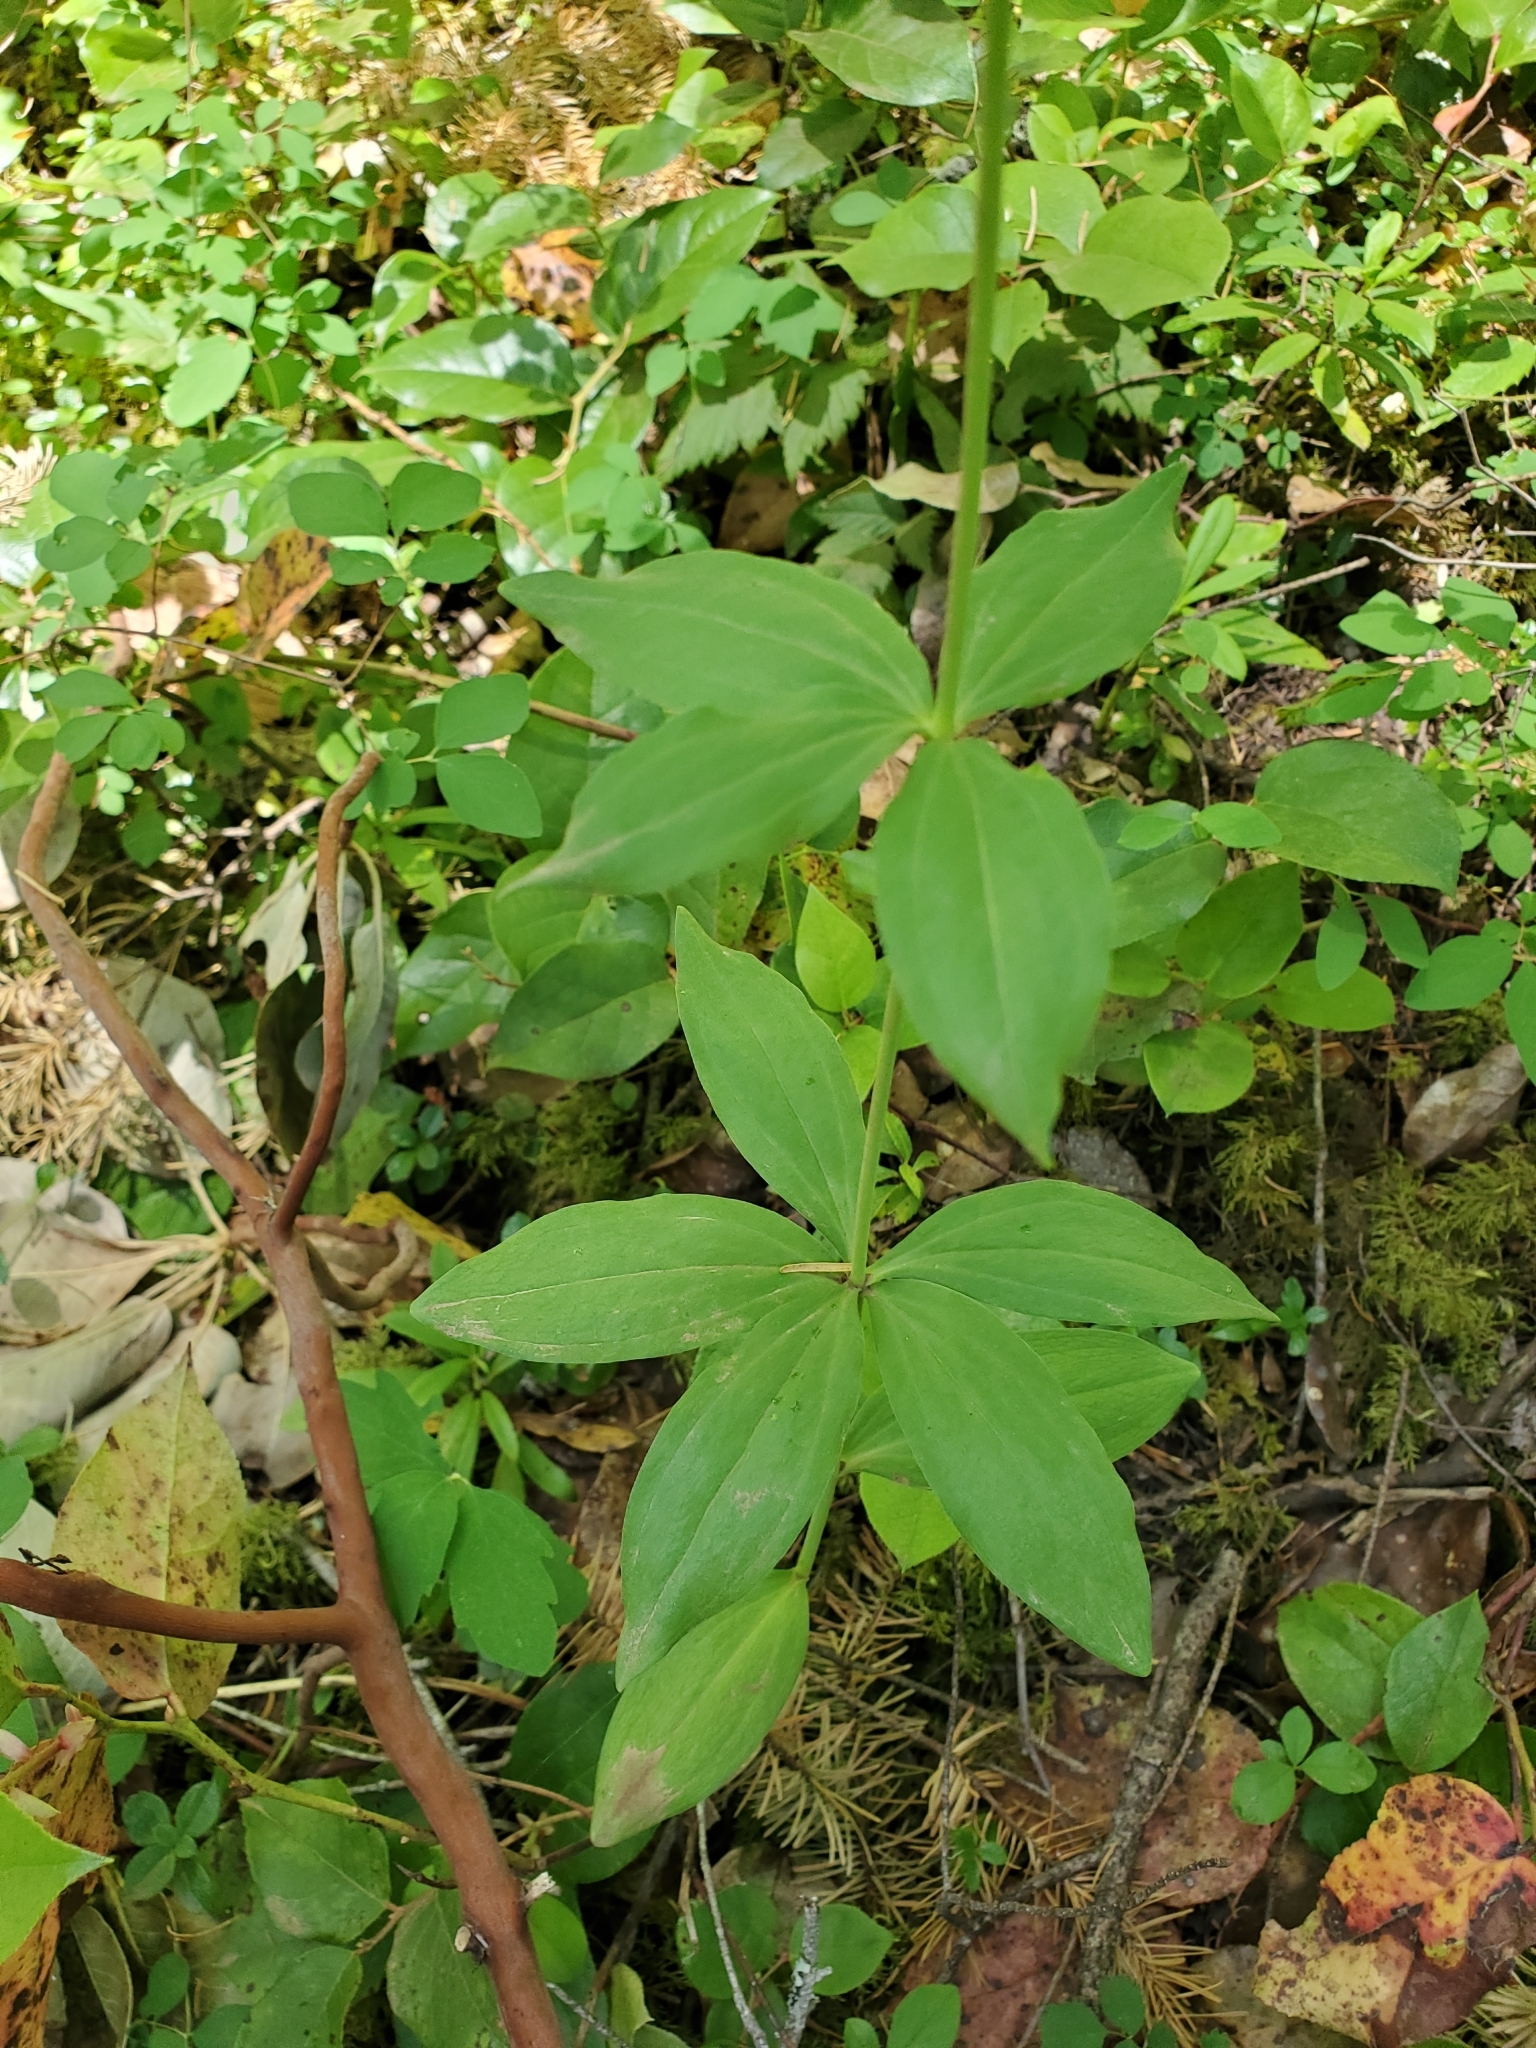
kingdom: Plantae
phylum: Tracheophyta
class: Liliopsida
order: Liliales
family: Liliaceae
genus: Lilium
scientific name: Lilium columbianum
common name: Columbia lily
